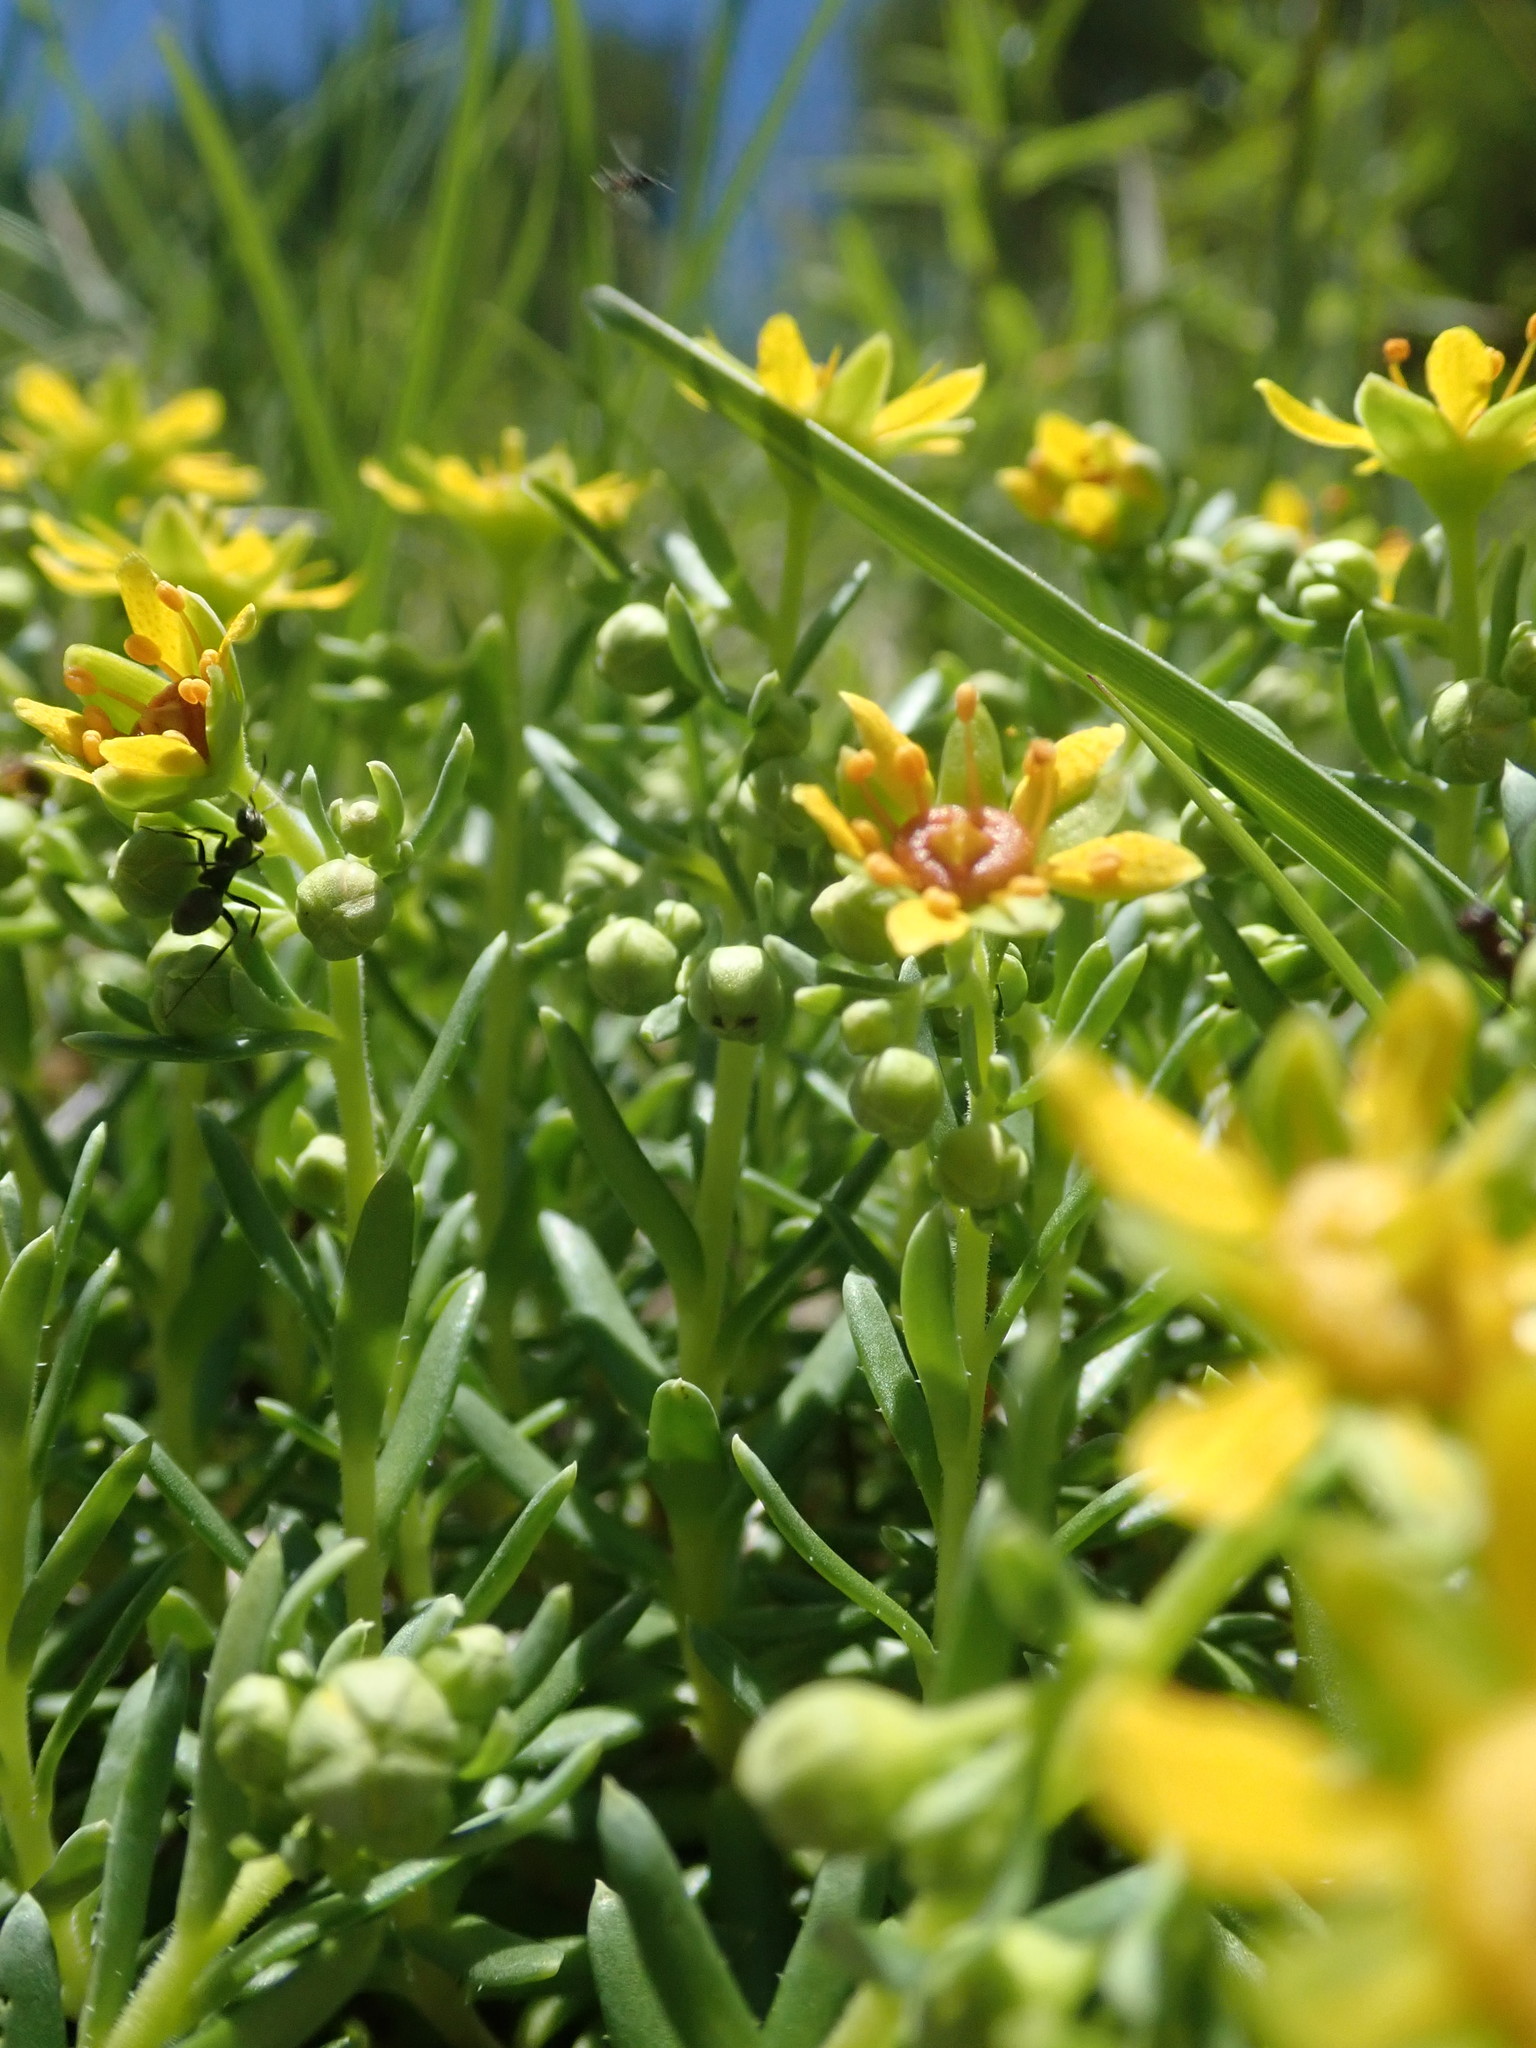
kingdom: Plantae
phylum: Tracheophyta
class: Magnoliopsida
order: Saxifragales
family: Saxifragaceae
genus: Saxifraga
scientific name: Saxifraga aizoides
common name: Yellow mountain saxifrage
